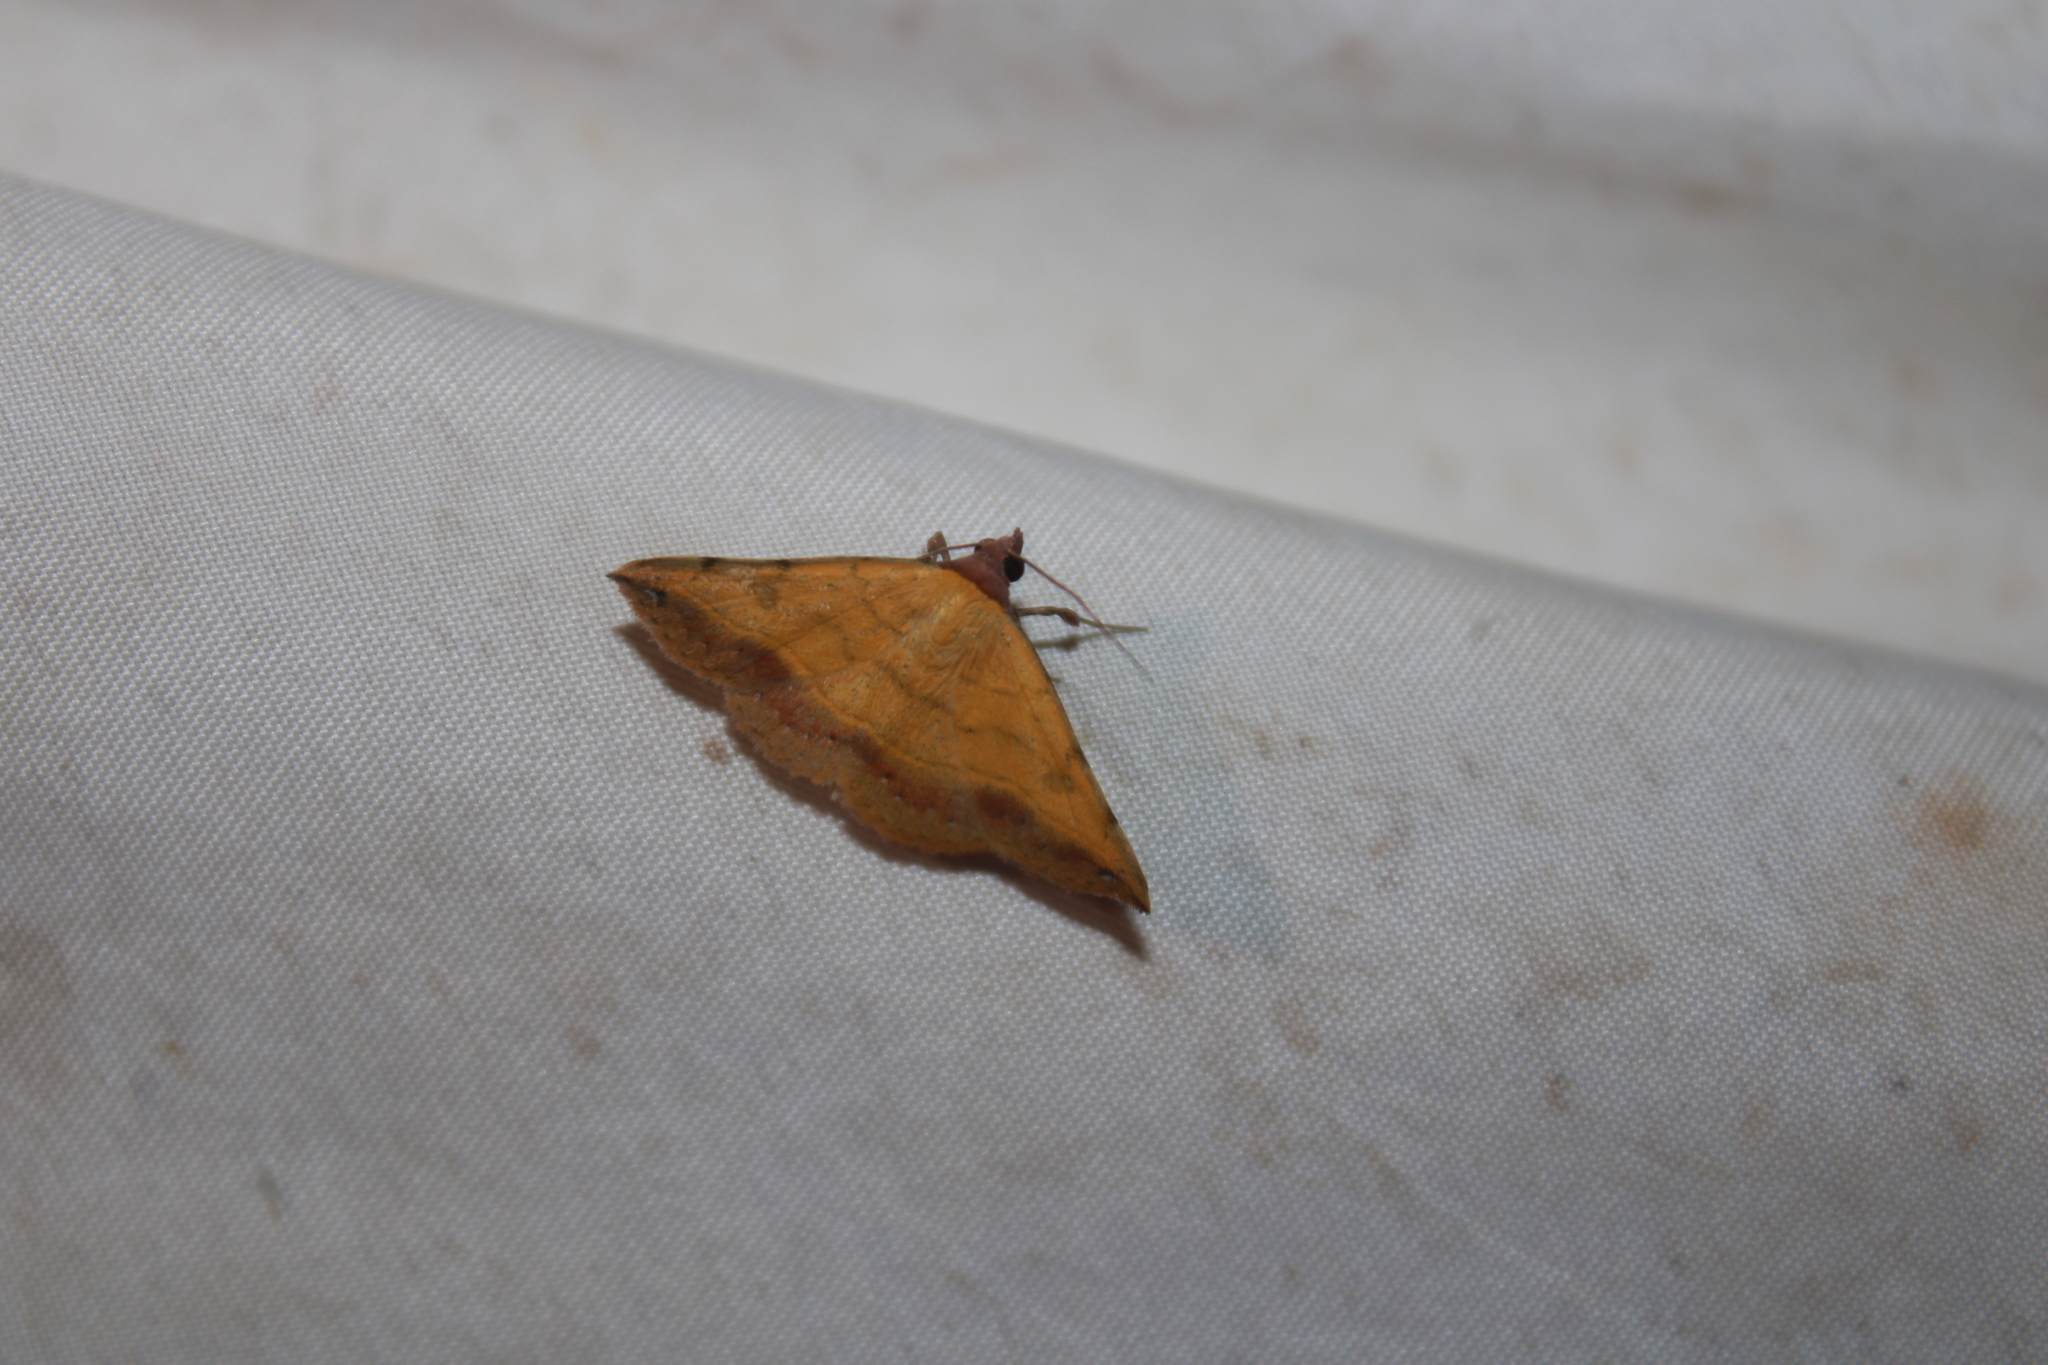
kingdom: Animalia
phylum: Arthropoda
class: Insecta
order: Lepidoptera
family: Erebidae
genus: Hemeroplanis
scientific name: Hemeroplanis scopulepes
